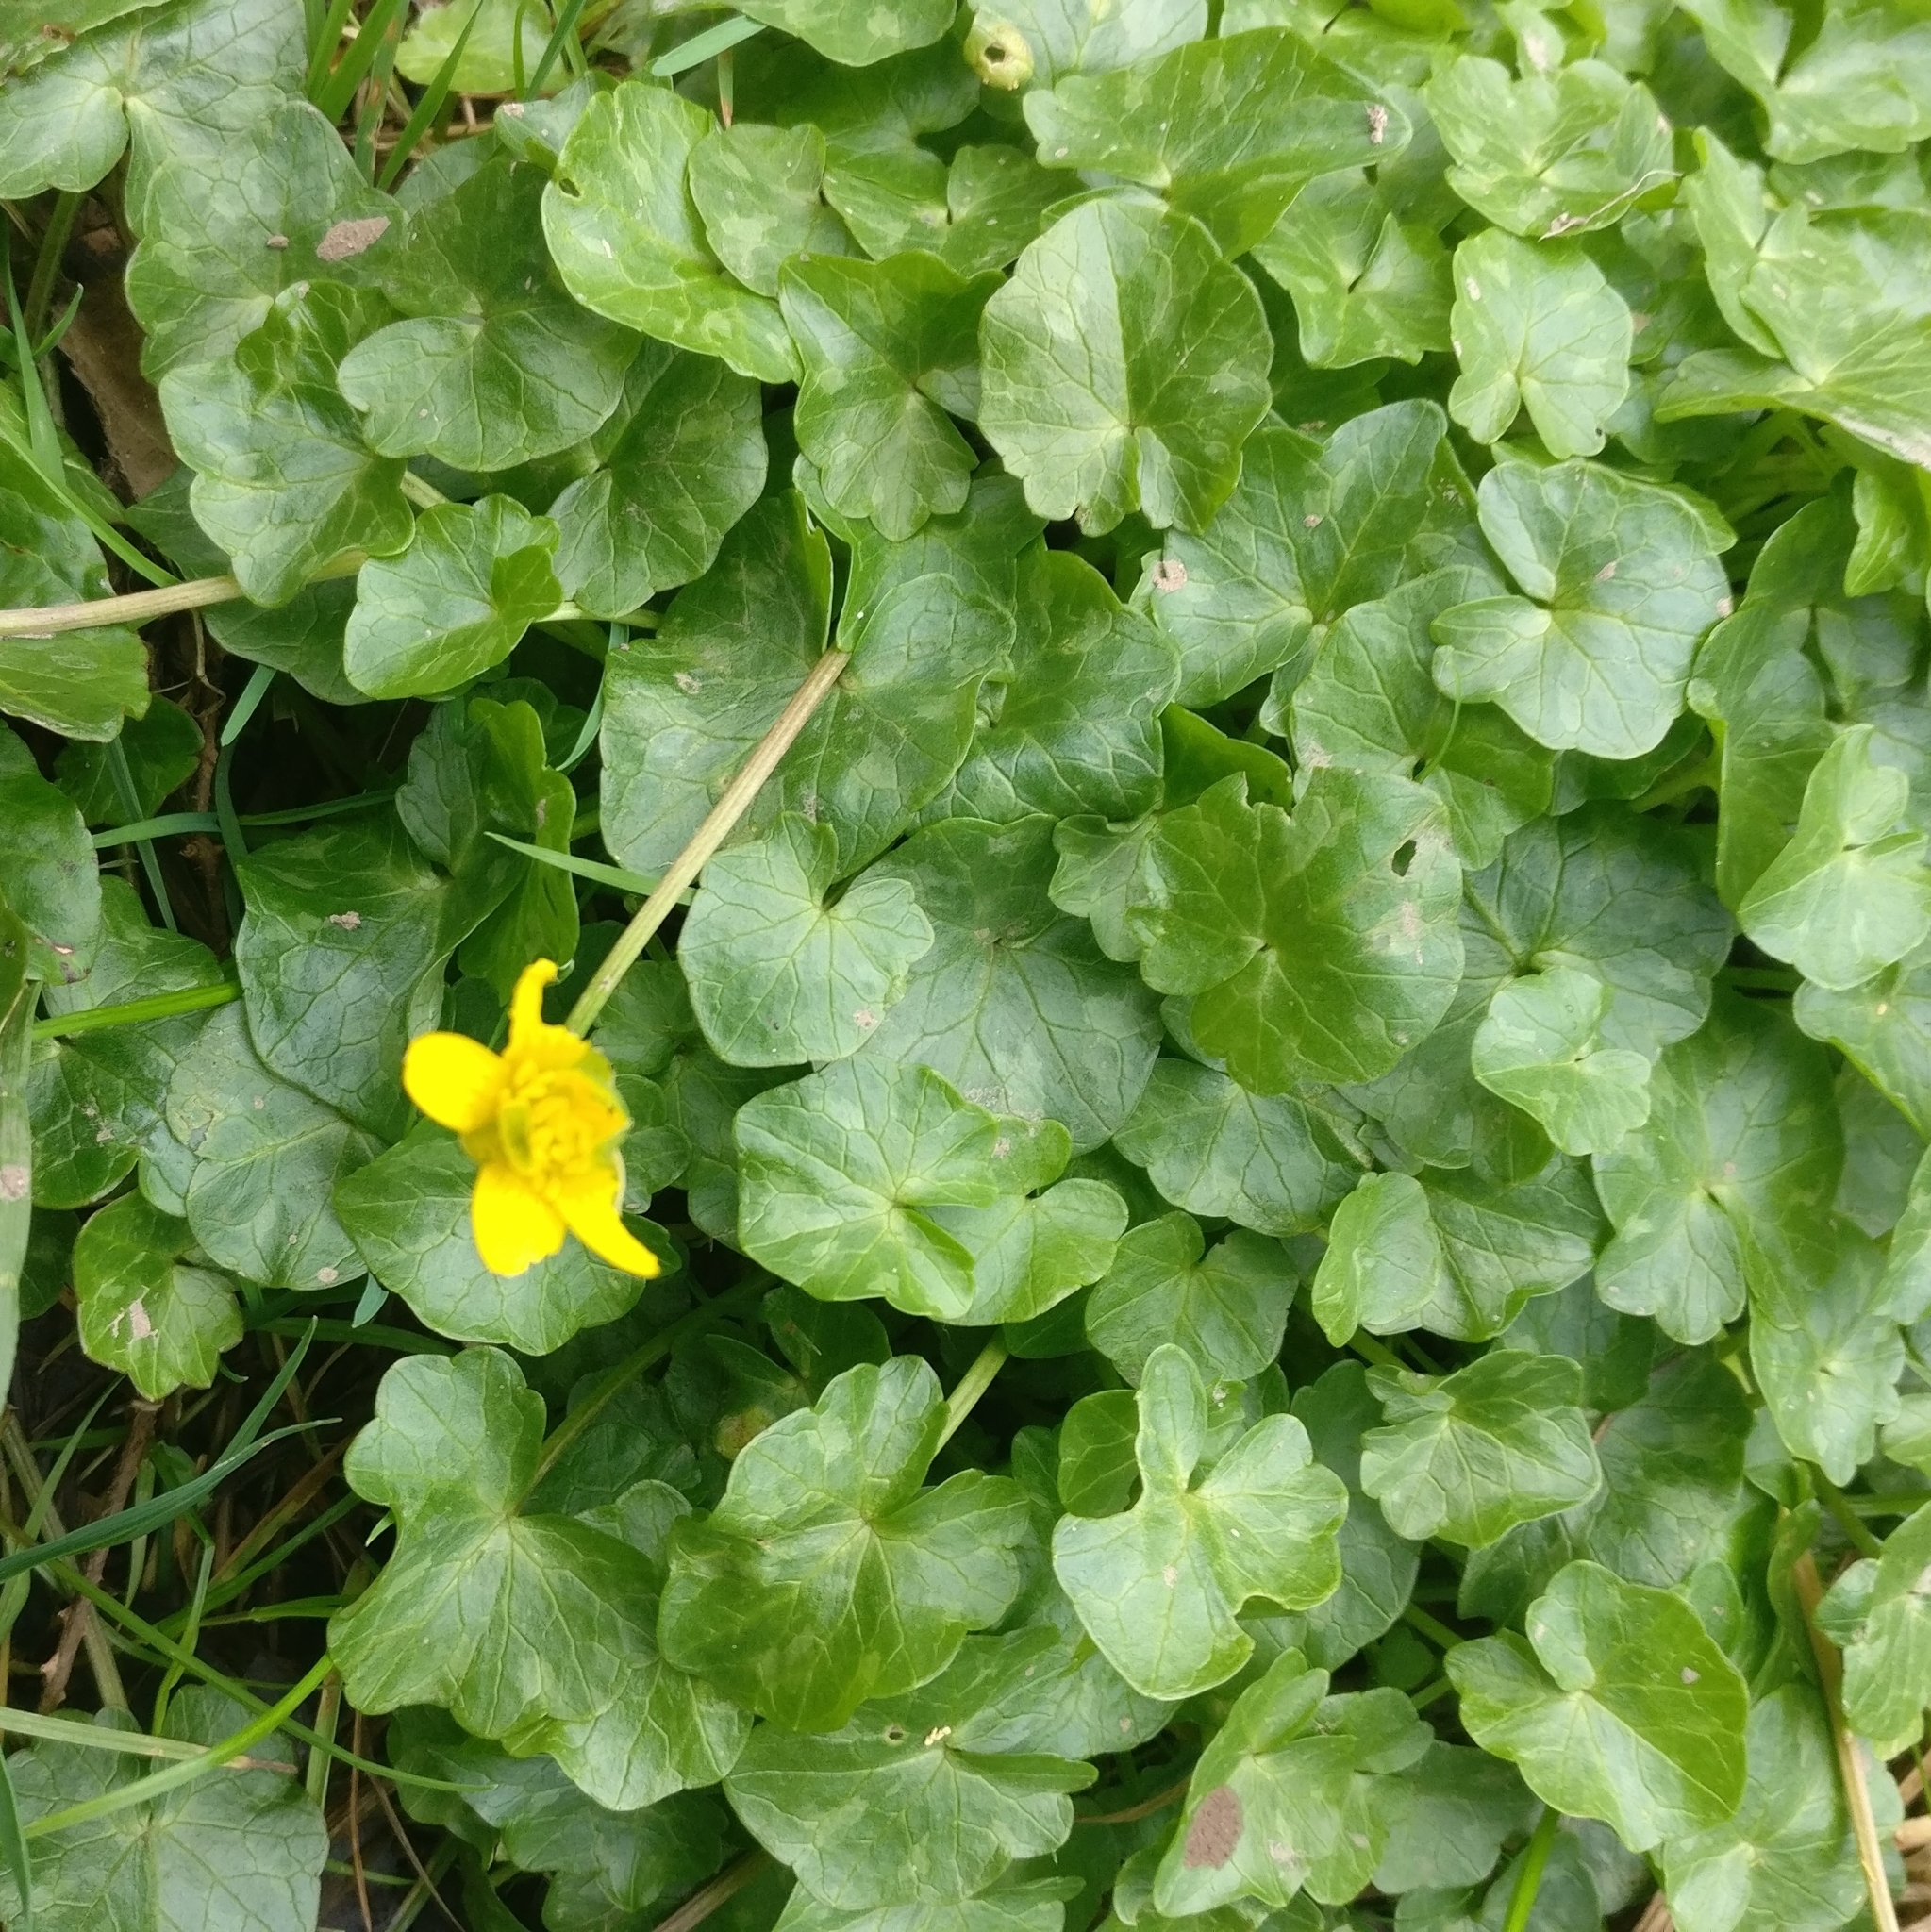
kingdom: Plantae
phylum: Tracheophyta
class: Magnoliopsida
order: Ranunculales
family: Ranunculaceae
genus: Ficaria
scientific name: Ficaria verna
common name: Lesser celandine
